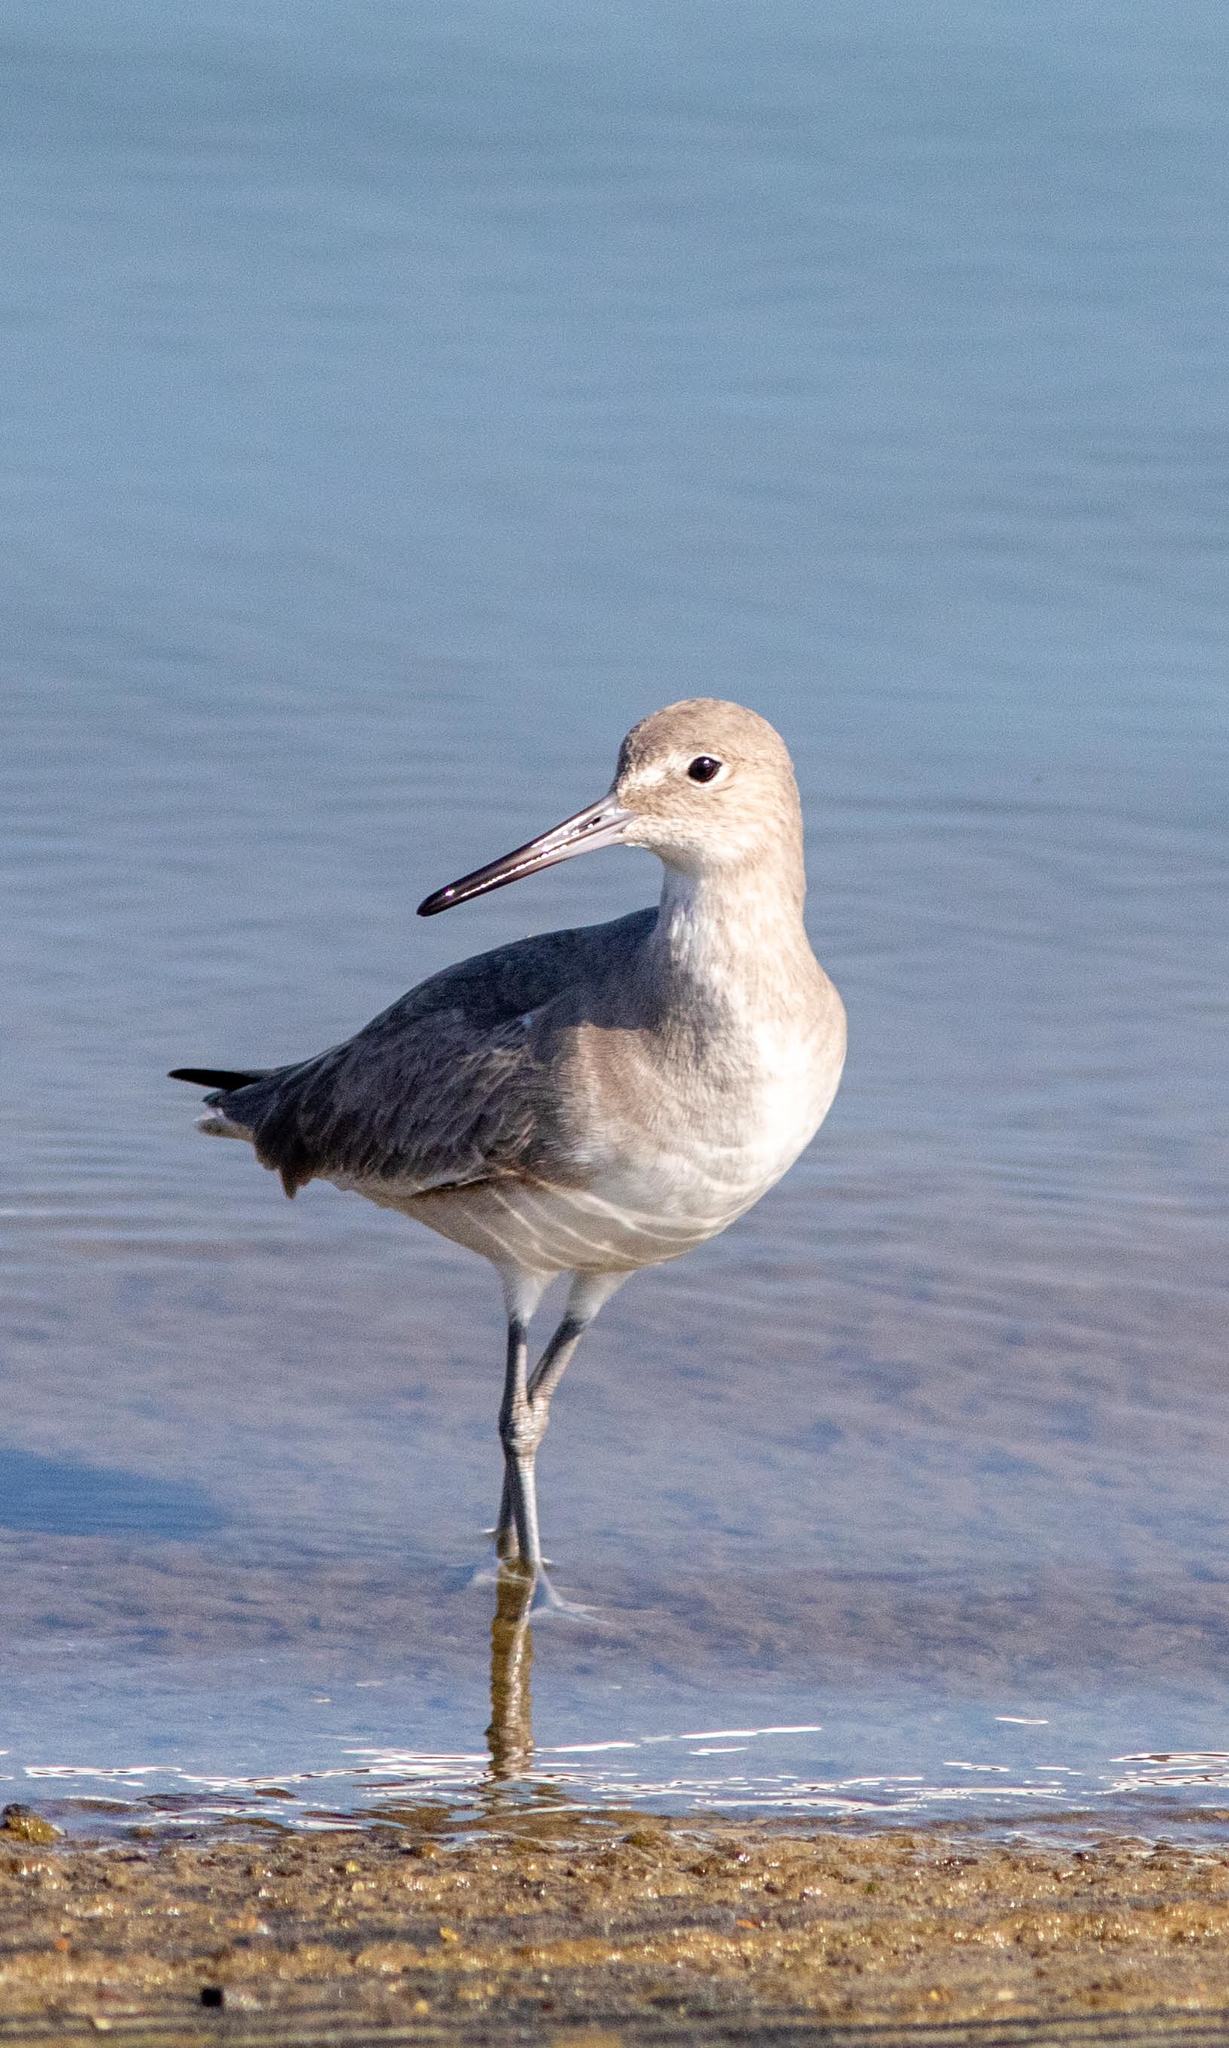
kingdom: Animalia
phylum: Chordata
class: Aves
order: Charadriiformes
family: Scolopacidae
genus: Tringa
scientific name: Tringa semipalmata
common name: Willet
